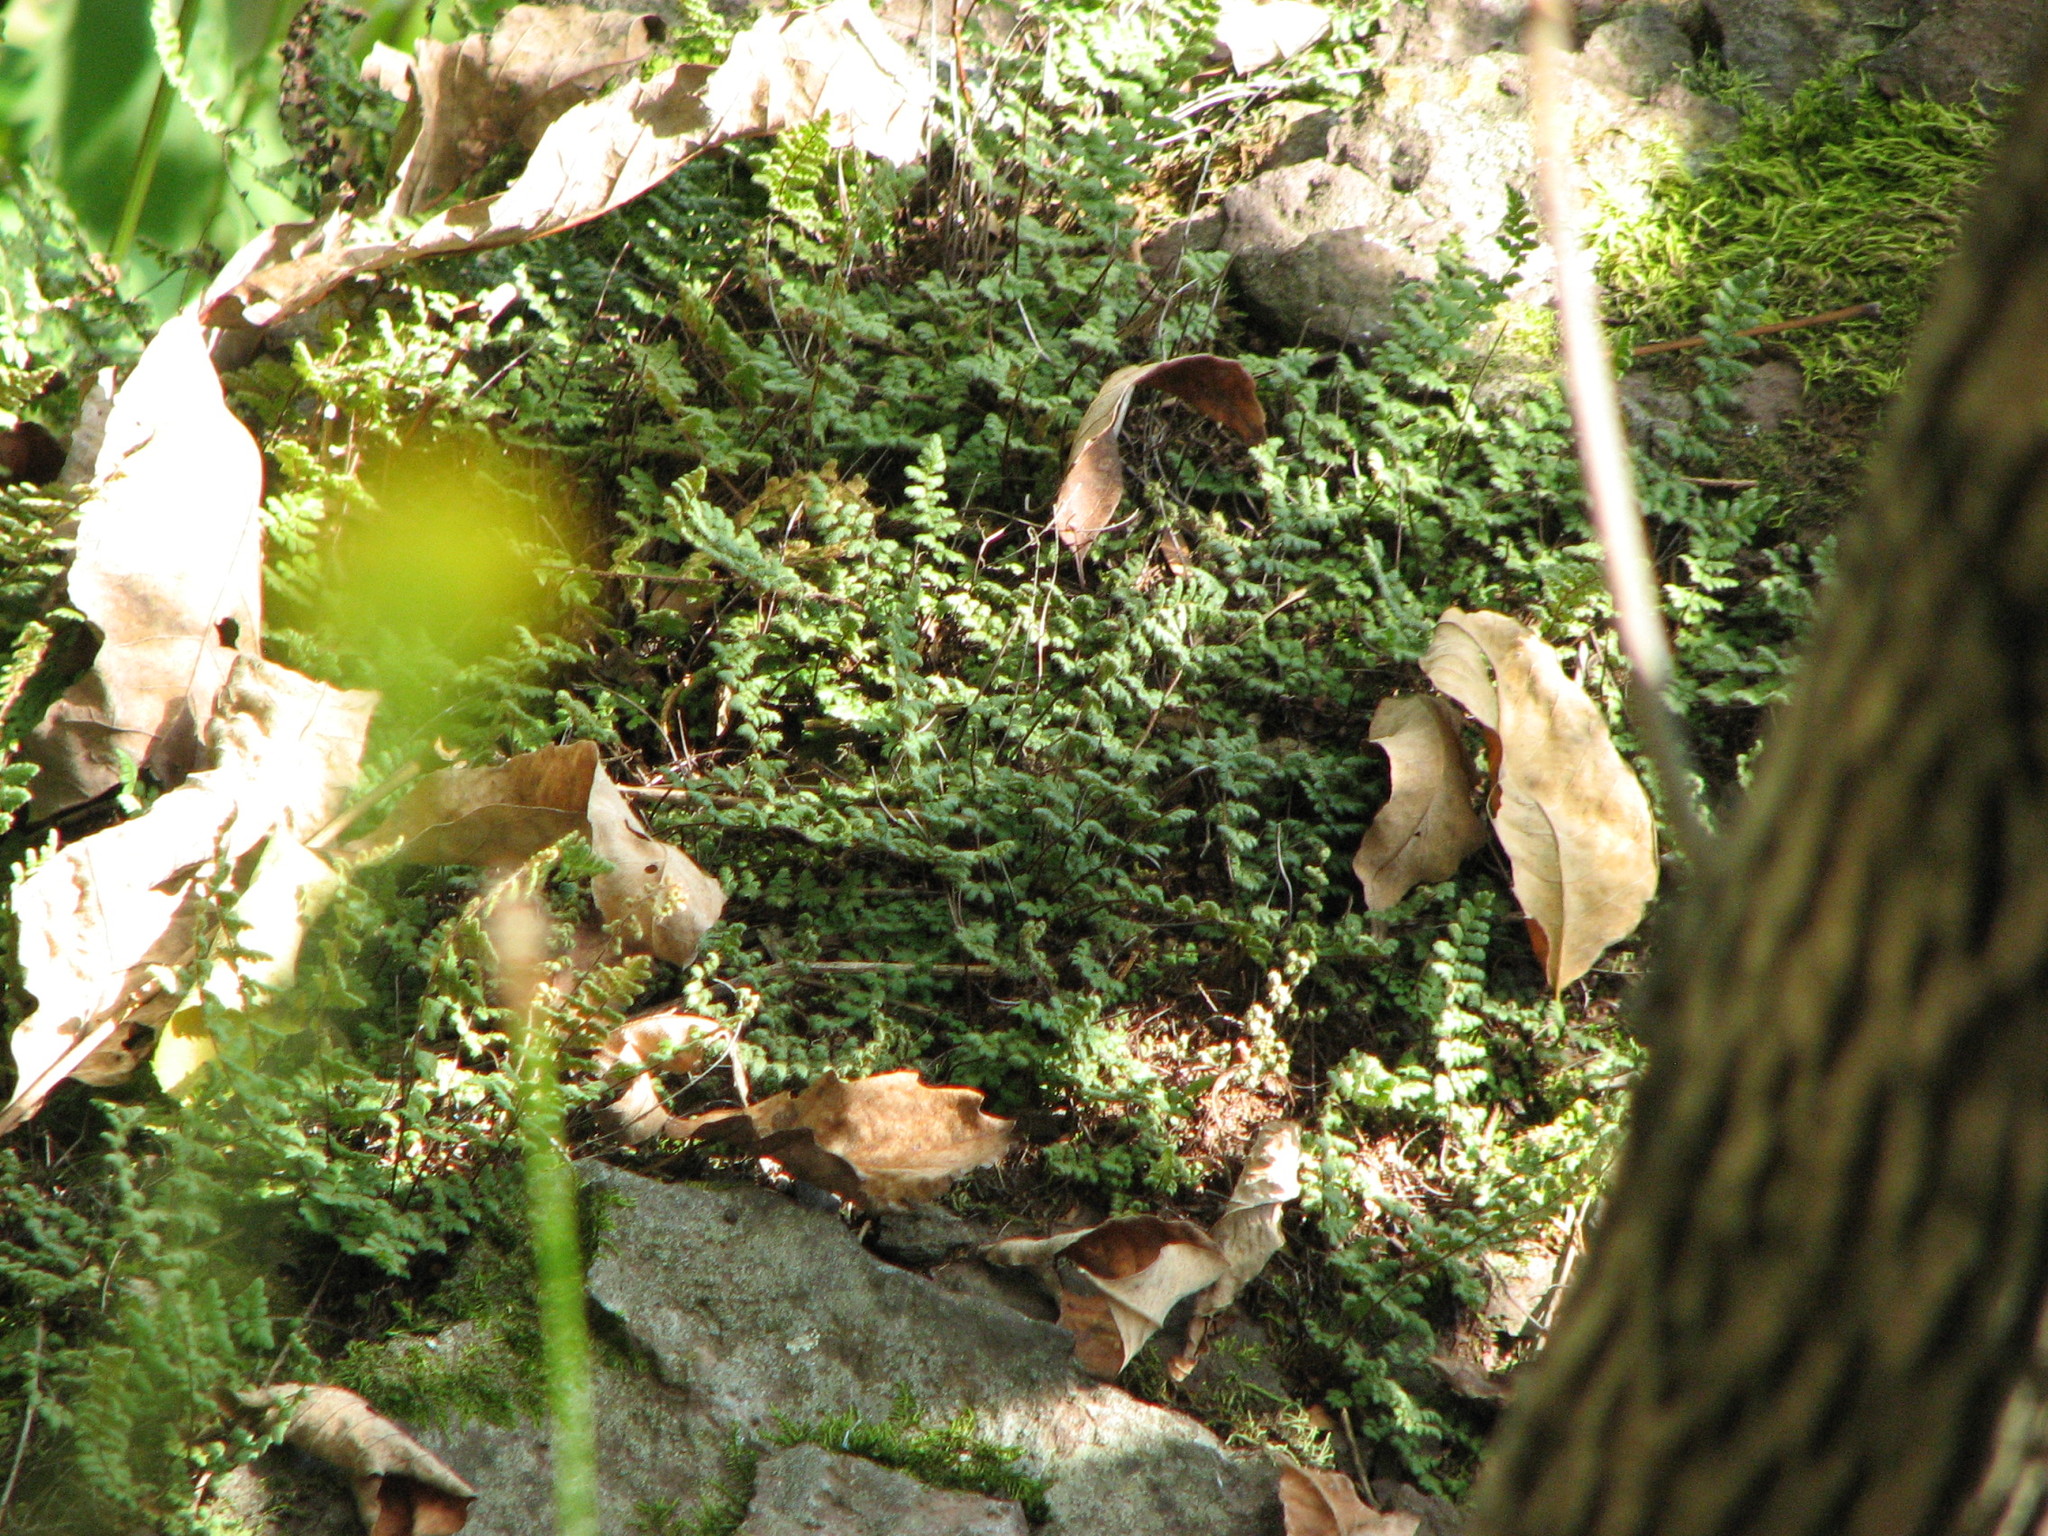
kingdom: Plantae
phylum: Tracheophyta
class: Polypodiopsida
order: Polypodiales
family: Pteridaceae
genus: Myriopteris
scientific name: Myriopteris lanosa
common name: Hairy lip fern
